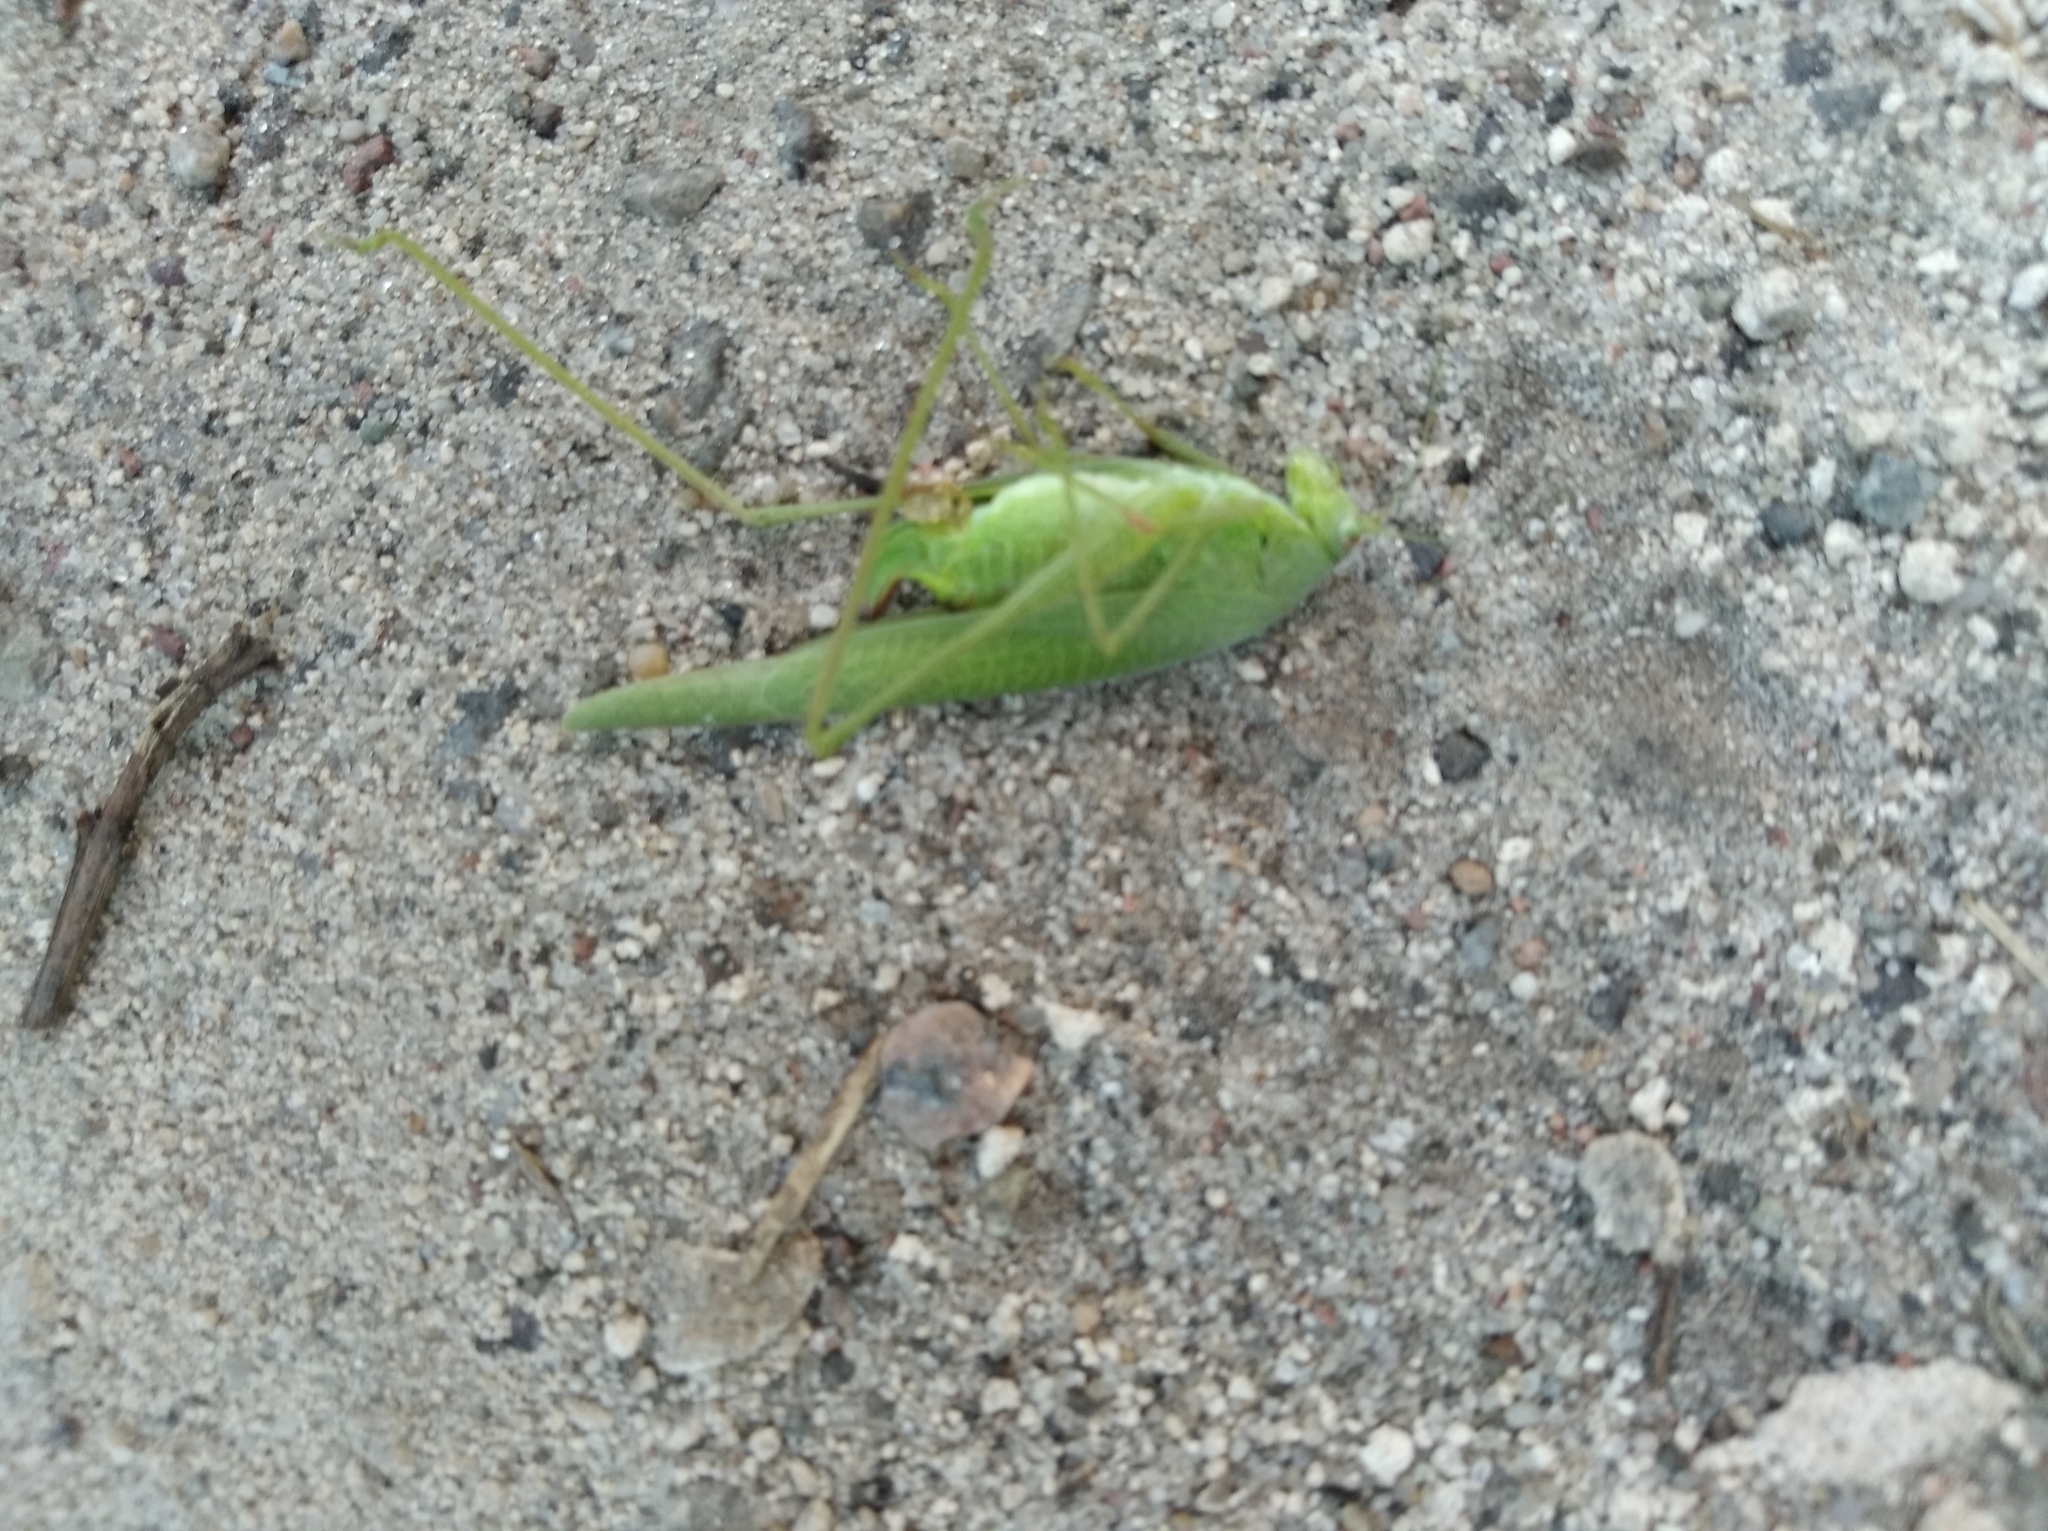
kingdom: Animalia
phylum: Arthropoda
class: Insecta
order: Orthoptera
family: Tettigoniidae
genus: Phaneroptera
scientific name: Phaneroptera nana
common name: Southern sickle bush-cricket
